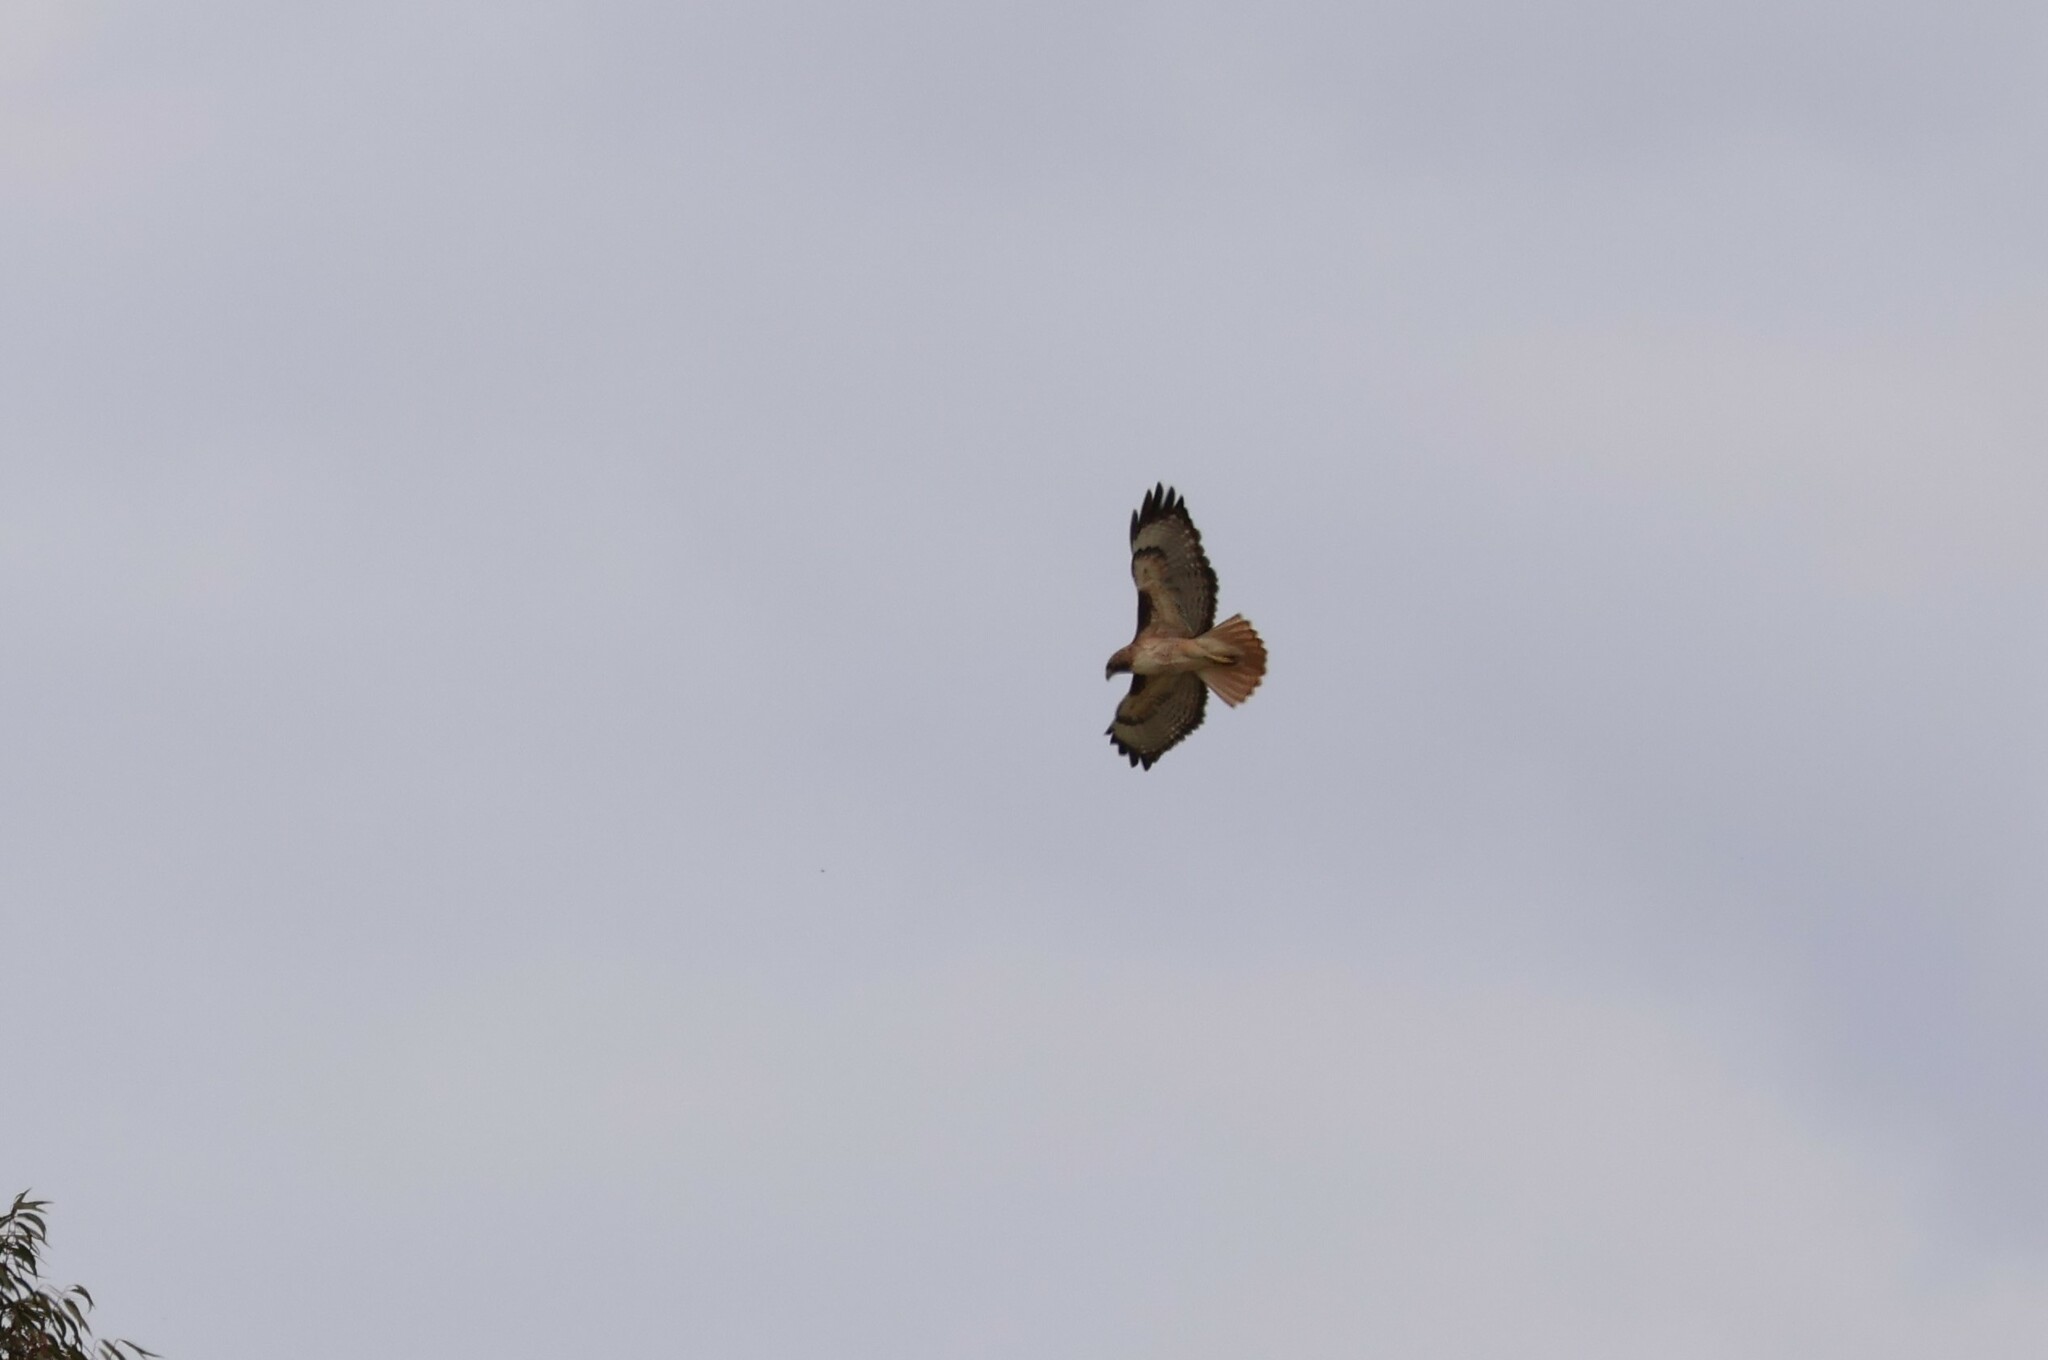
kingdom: Animalia
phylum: Chordata
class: Aves
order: Accipitriformes
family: Accipitridae
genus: Buteo
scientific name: Buteo jamaicensis
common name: Red-tailed hawk
